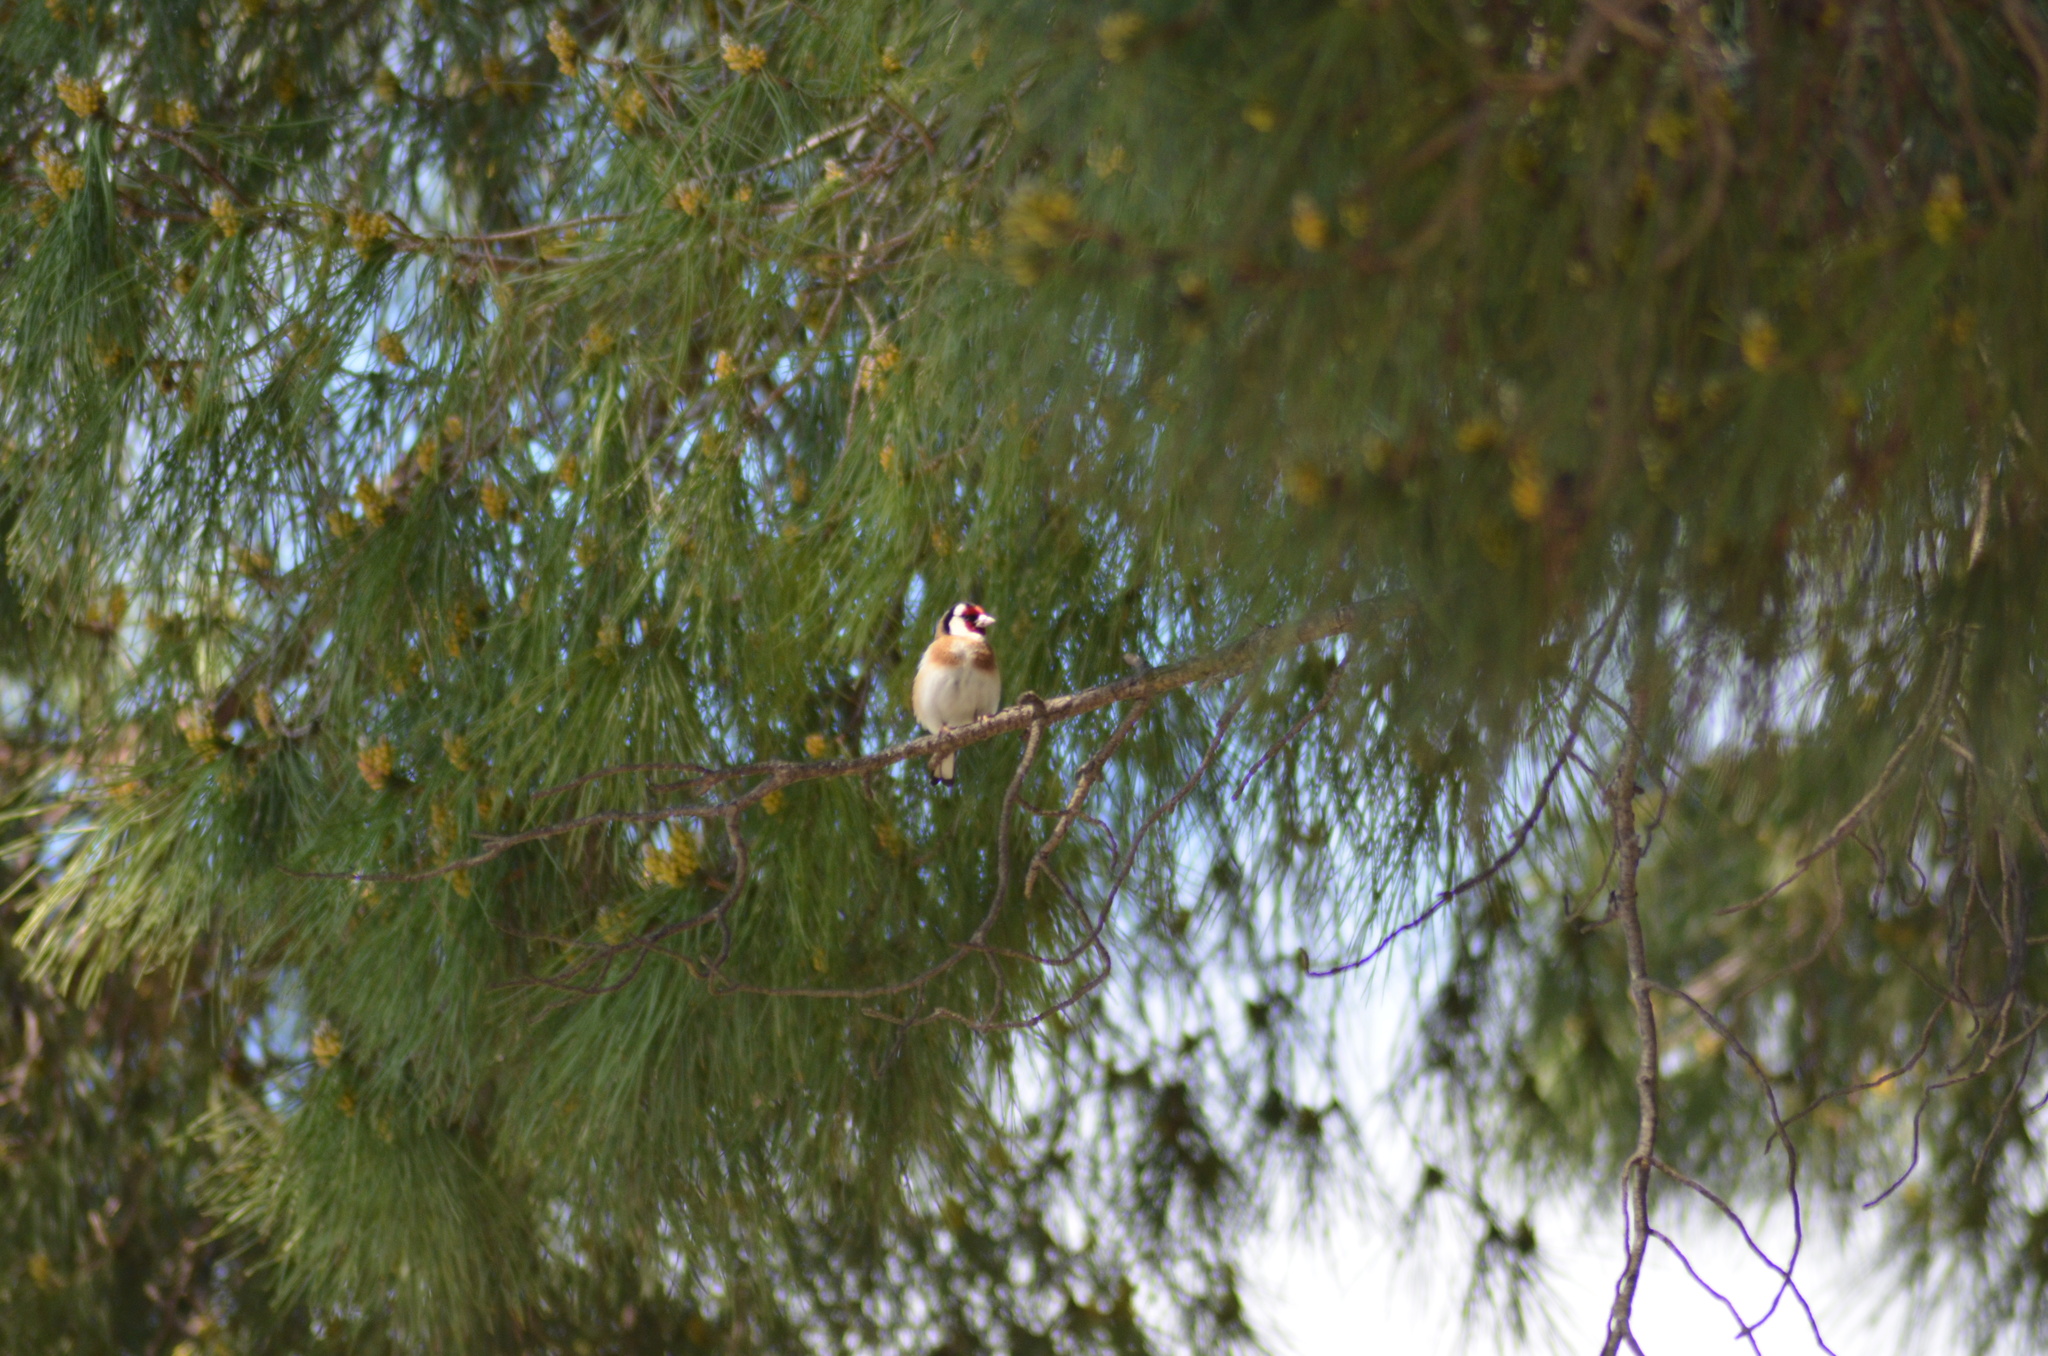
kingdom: Animalia
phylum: Chordata
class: Aves
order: Passeriformes
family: Fringillidae
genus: Carduelis
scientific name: Carduelis carduelis
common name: European goldfinch
